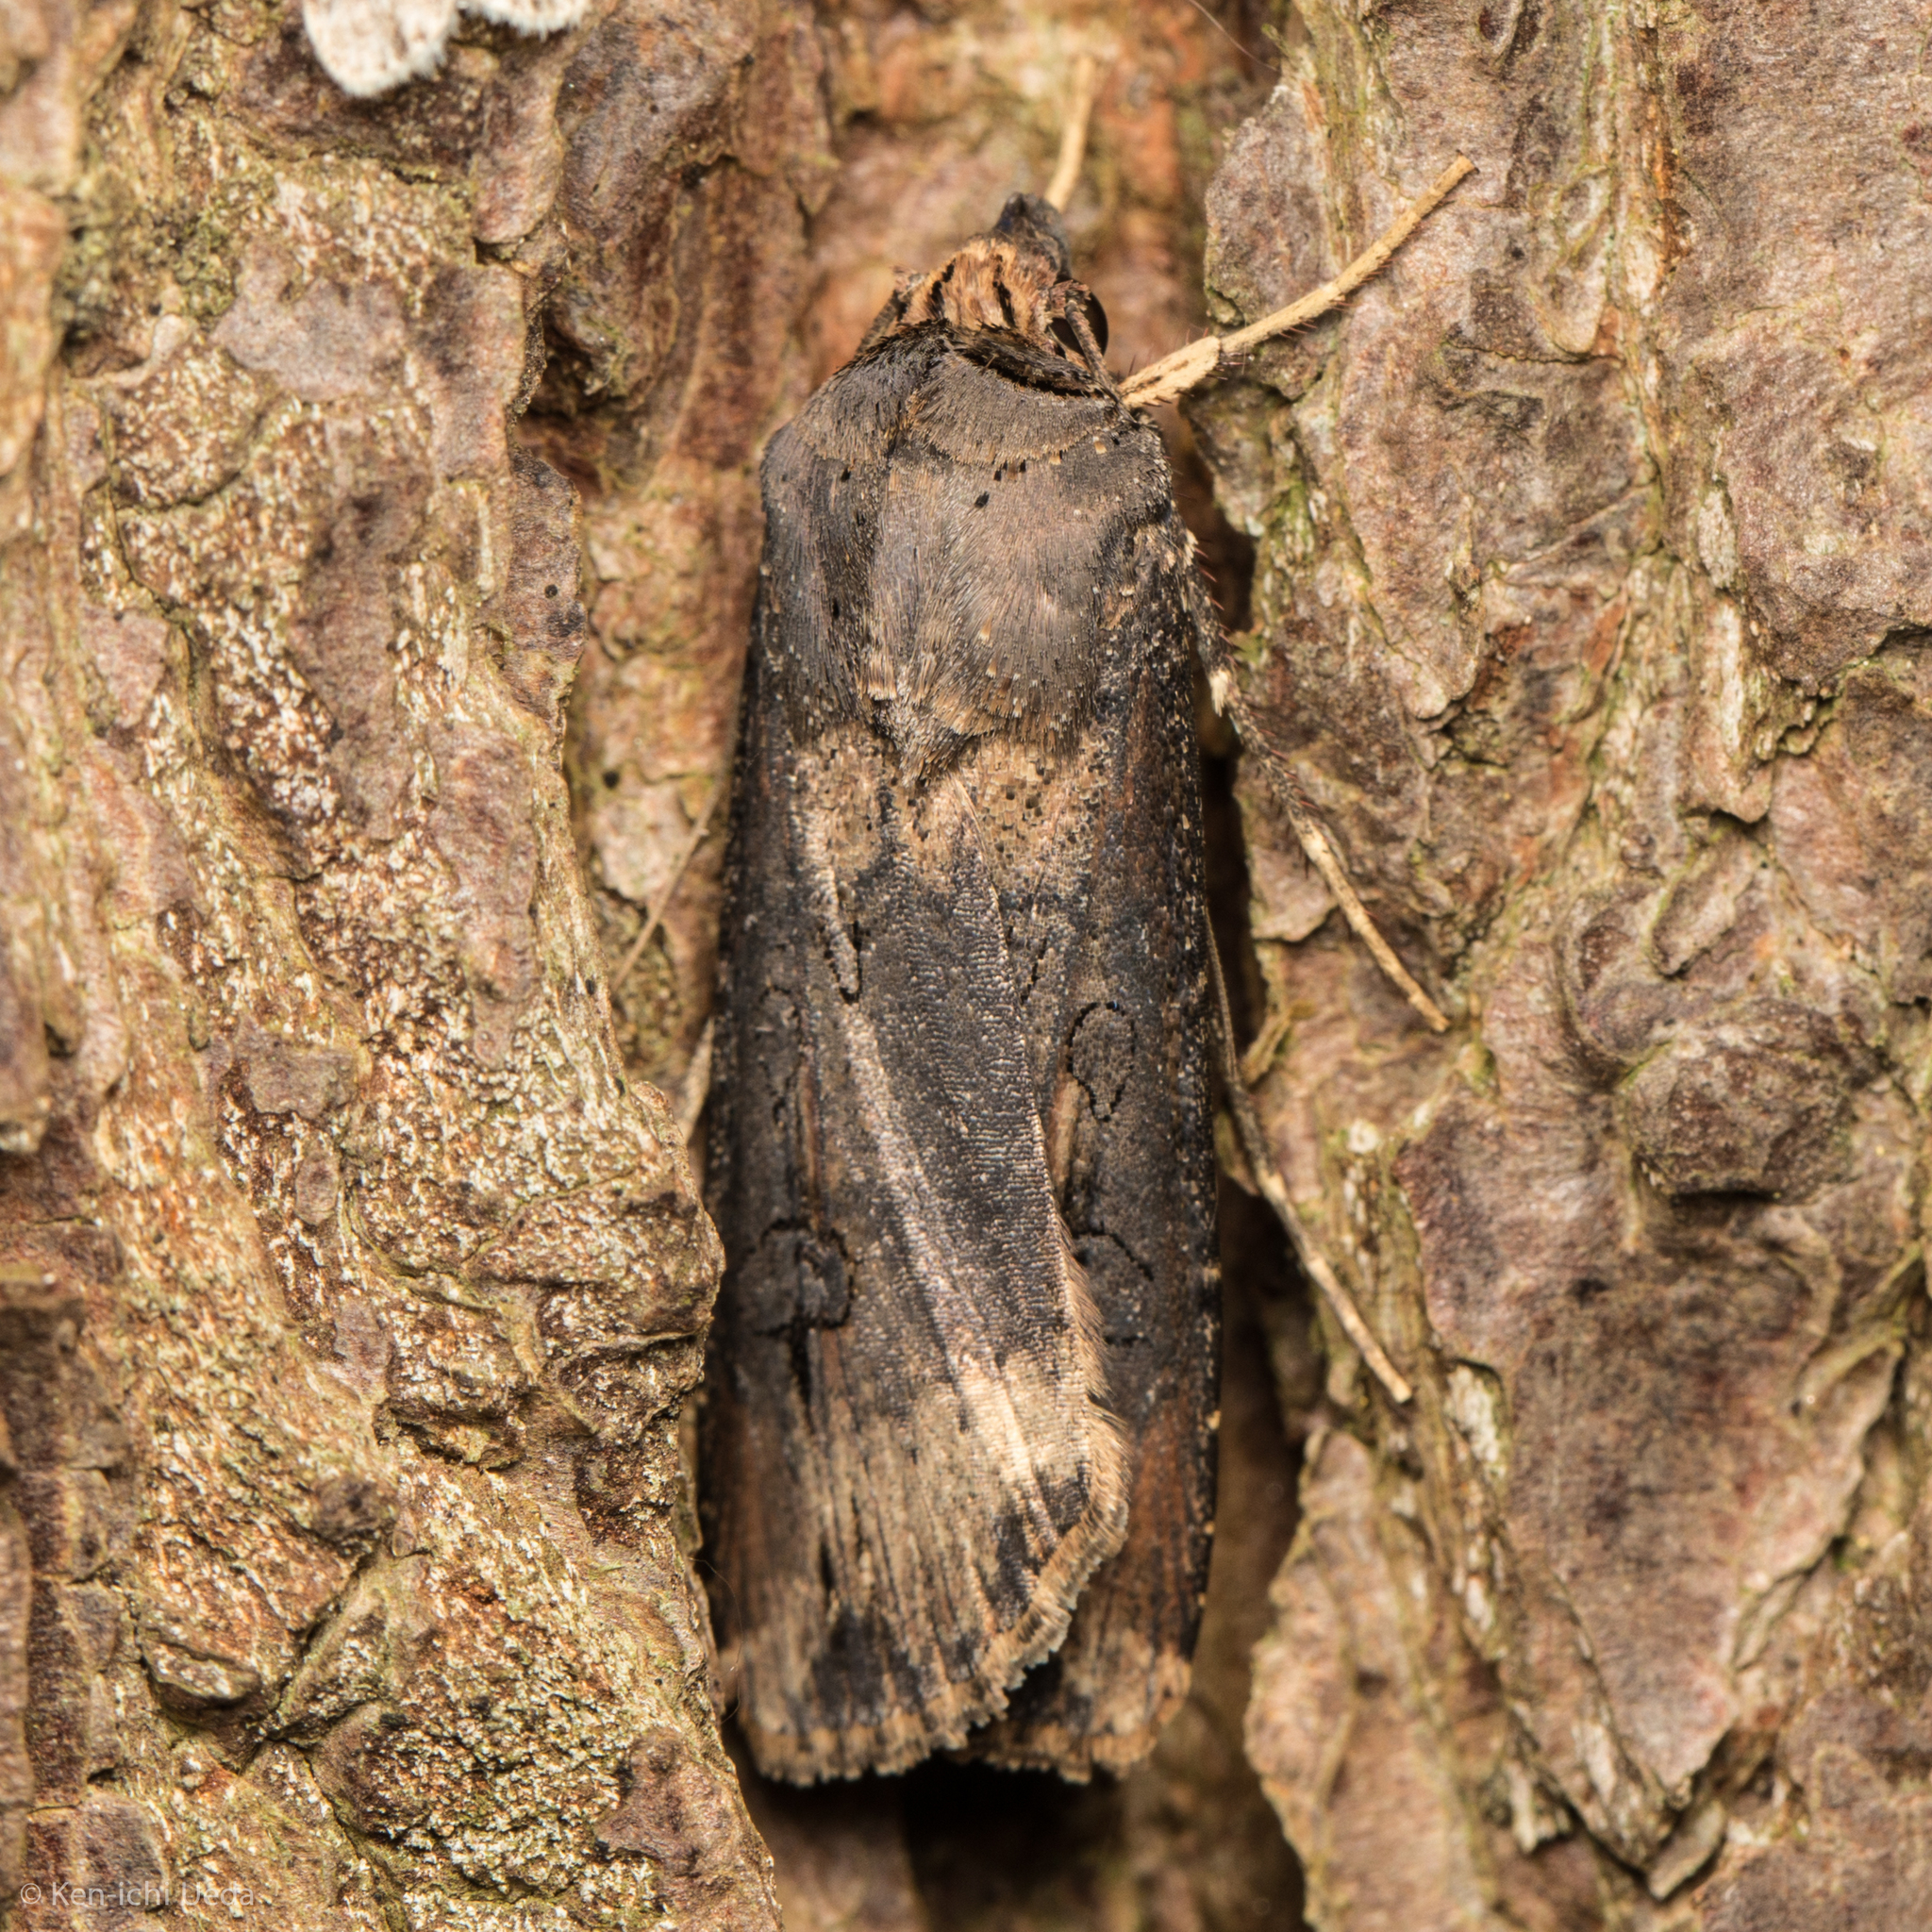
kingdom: Animalia
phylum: Arthropoda
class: Insecta
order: Lepidoptera
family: Noctuidae
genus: Agrotis
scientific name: Agrotis ipsilon
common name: Dark sword-grass
